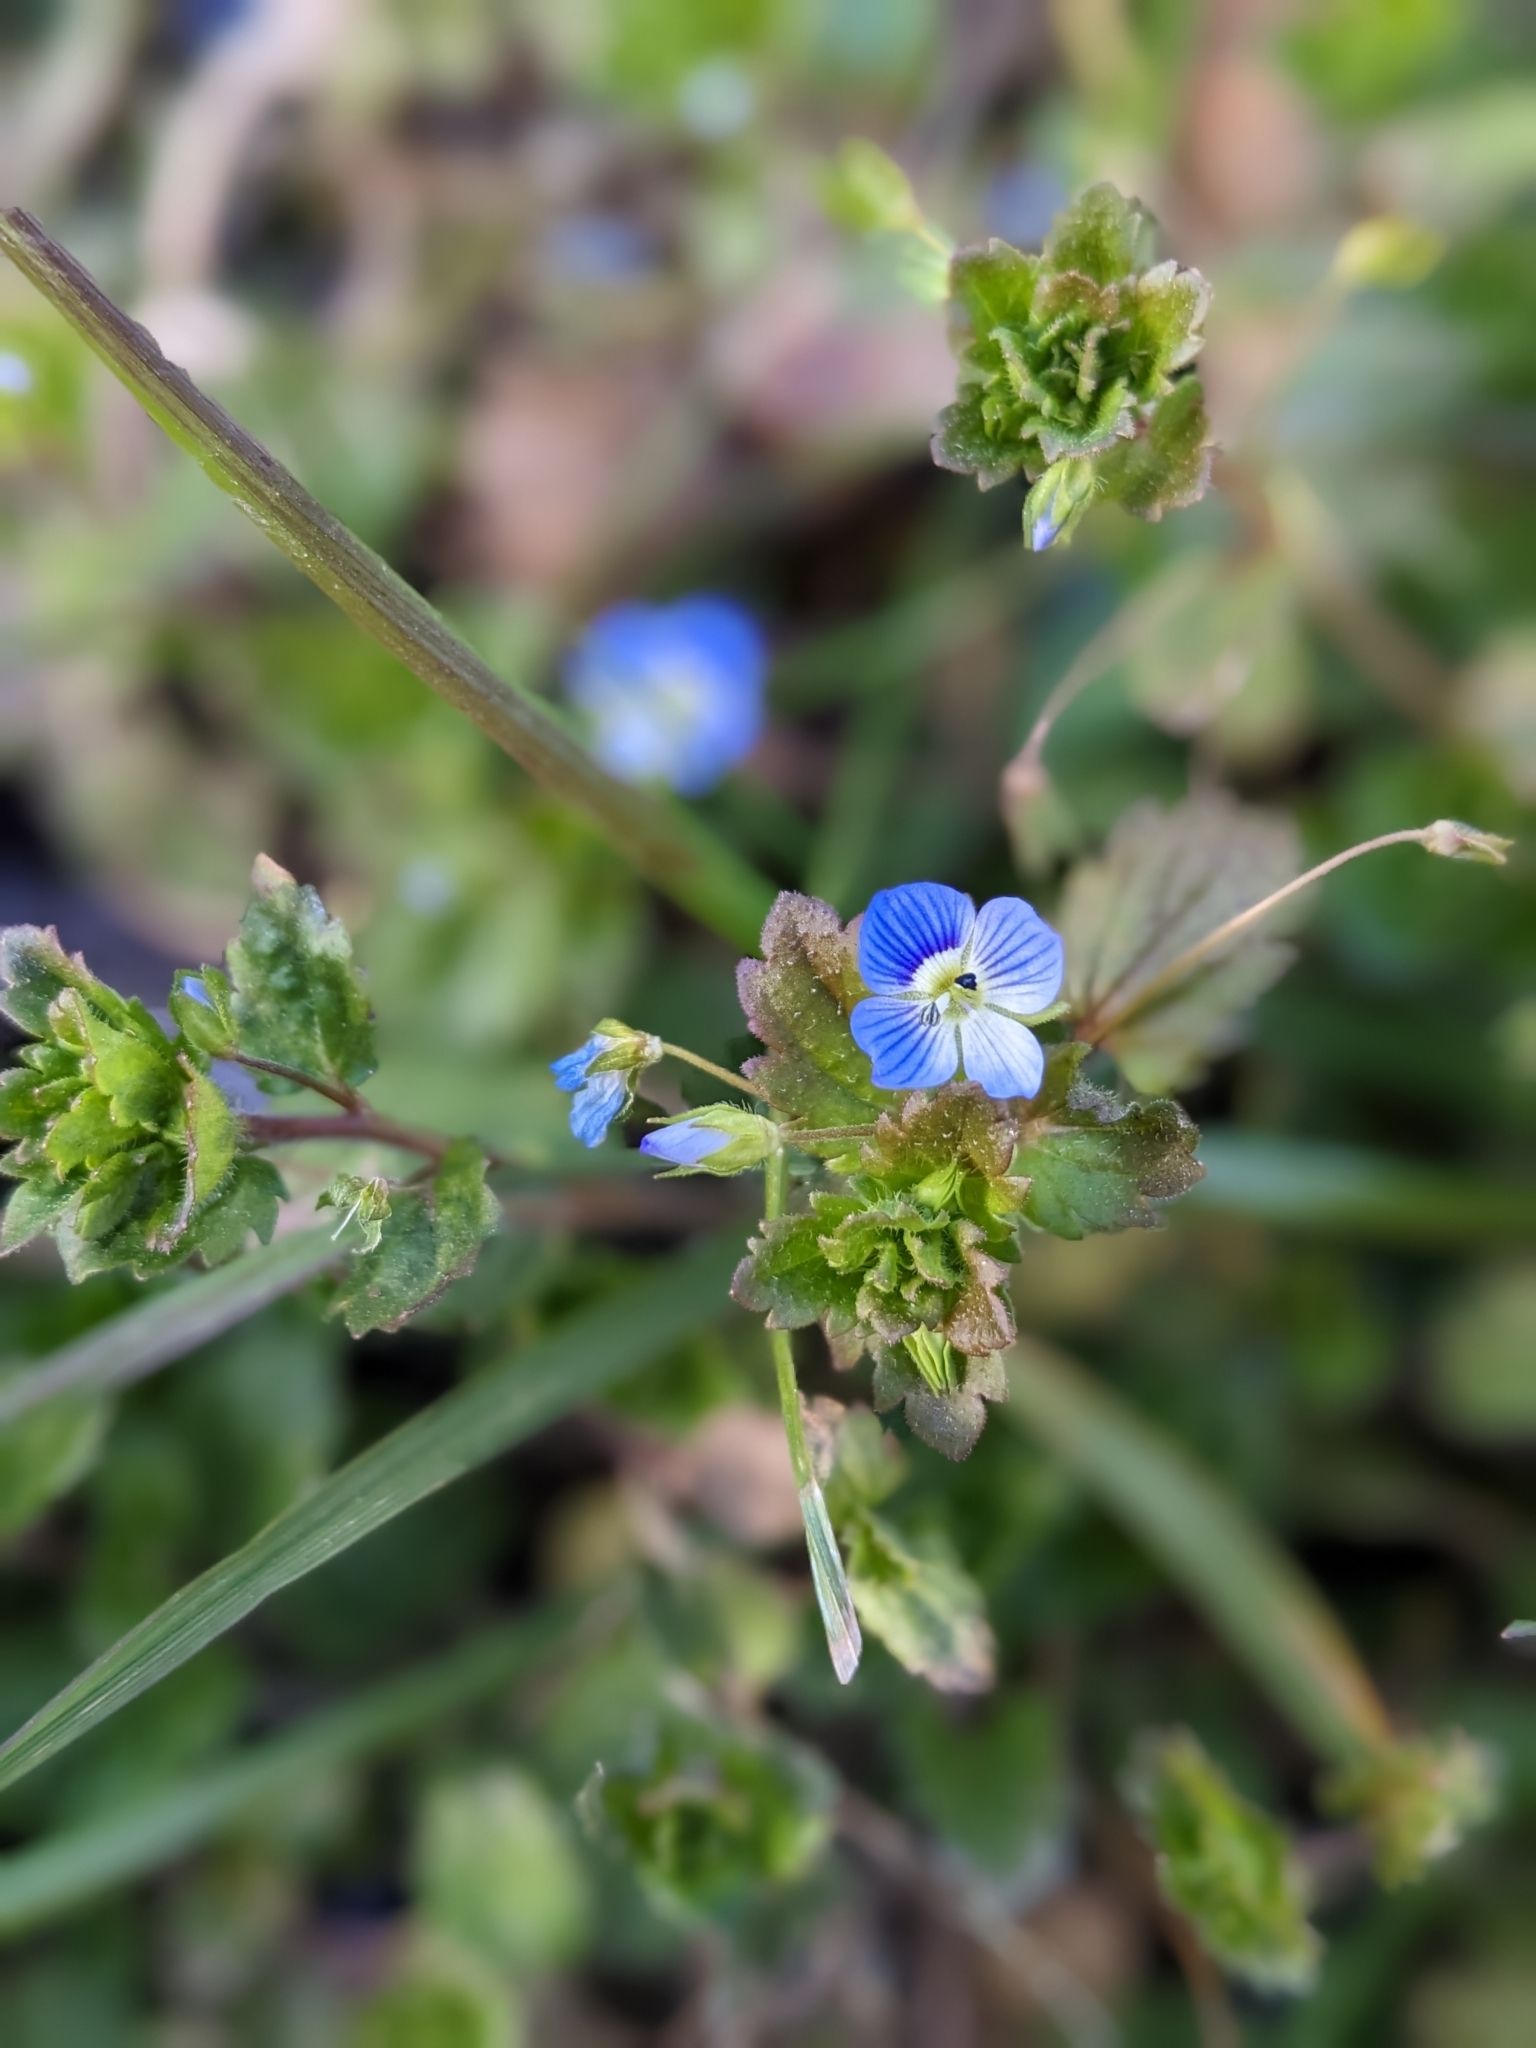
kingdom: Plantae
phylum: Tracheophyta
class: Magnoliopsida
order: Lamiales
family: Plantaginaceae
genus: Veronica
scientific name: Veronica persica
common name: Common field-speedwell
